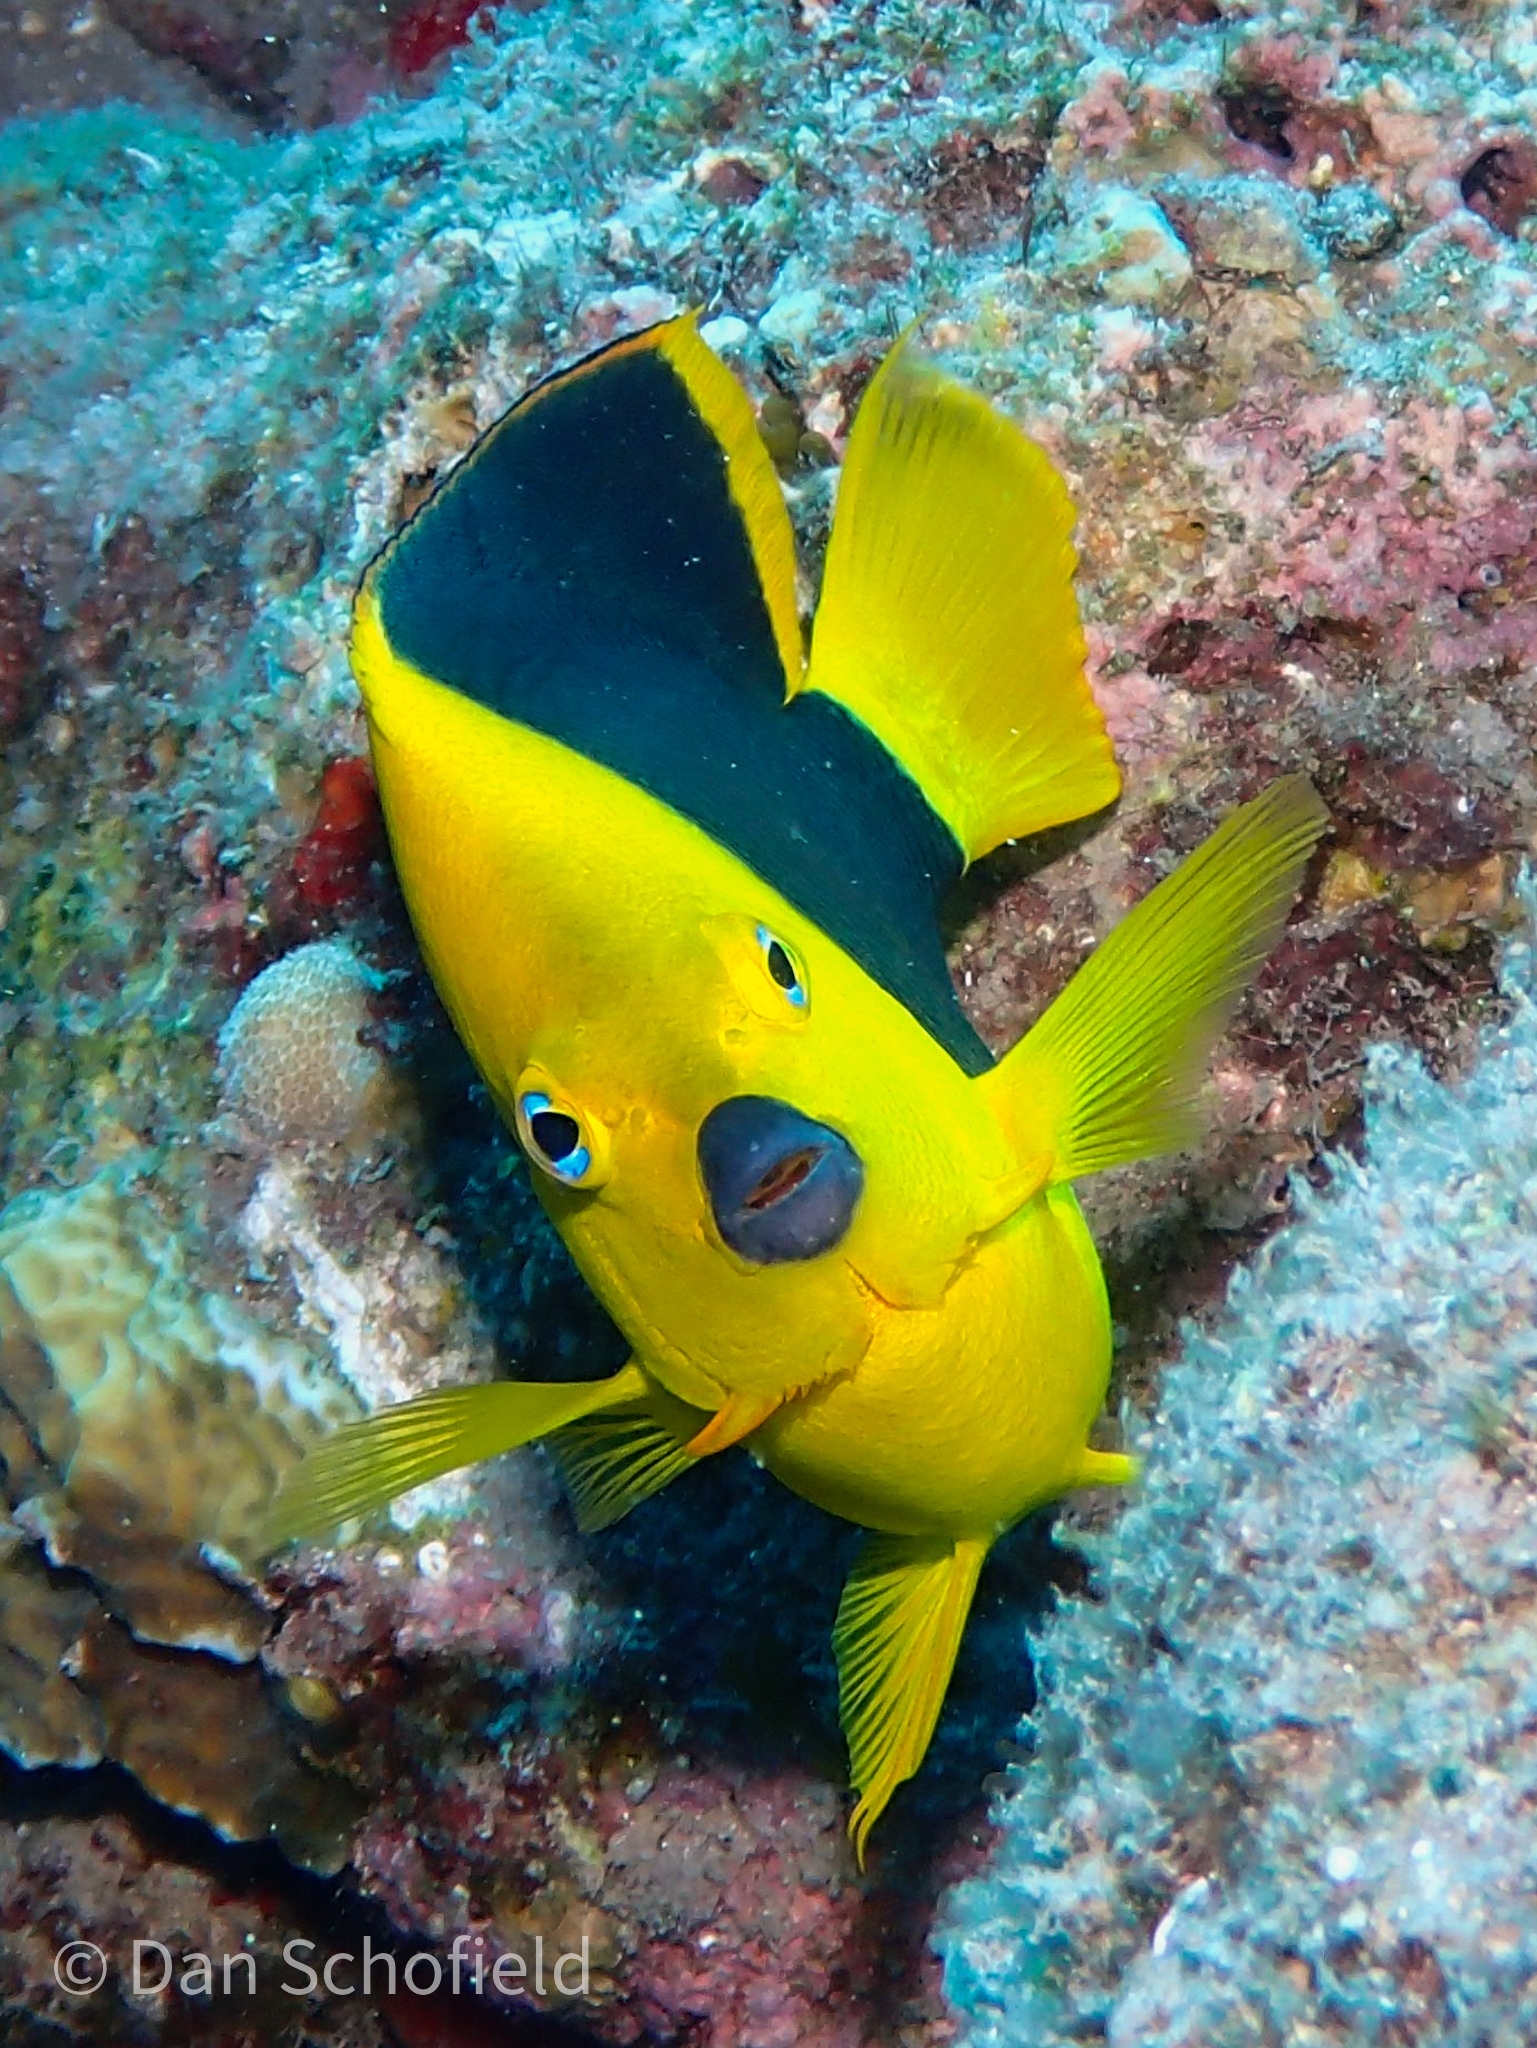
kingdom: Animalia
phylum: Chordata
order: Perciformes
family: Pomacanthidae
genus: Holacanthus
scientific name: Holacanthus tricolor
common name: Rock beauty
